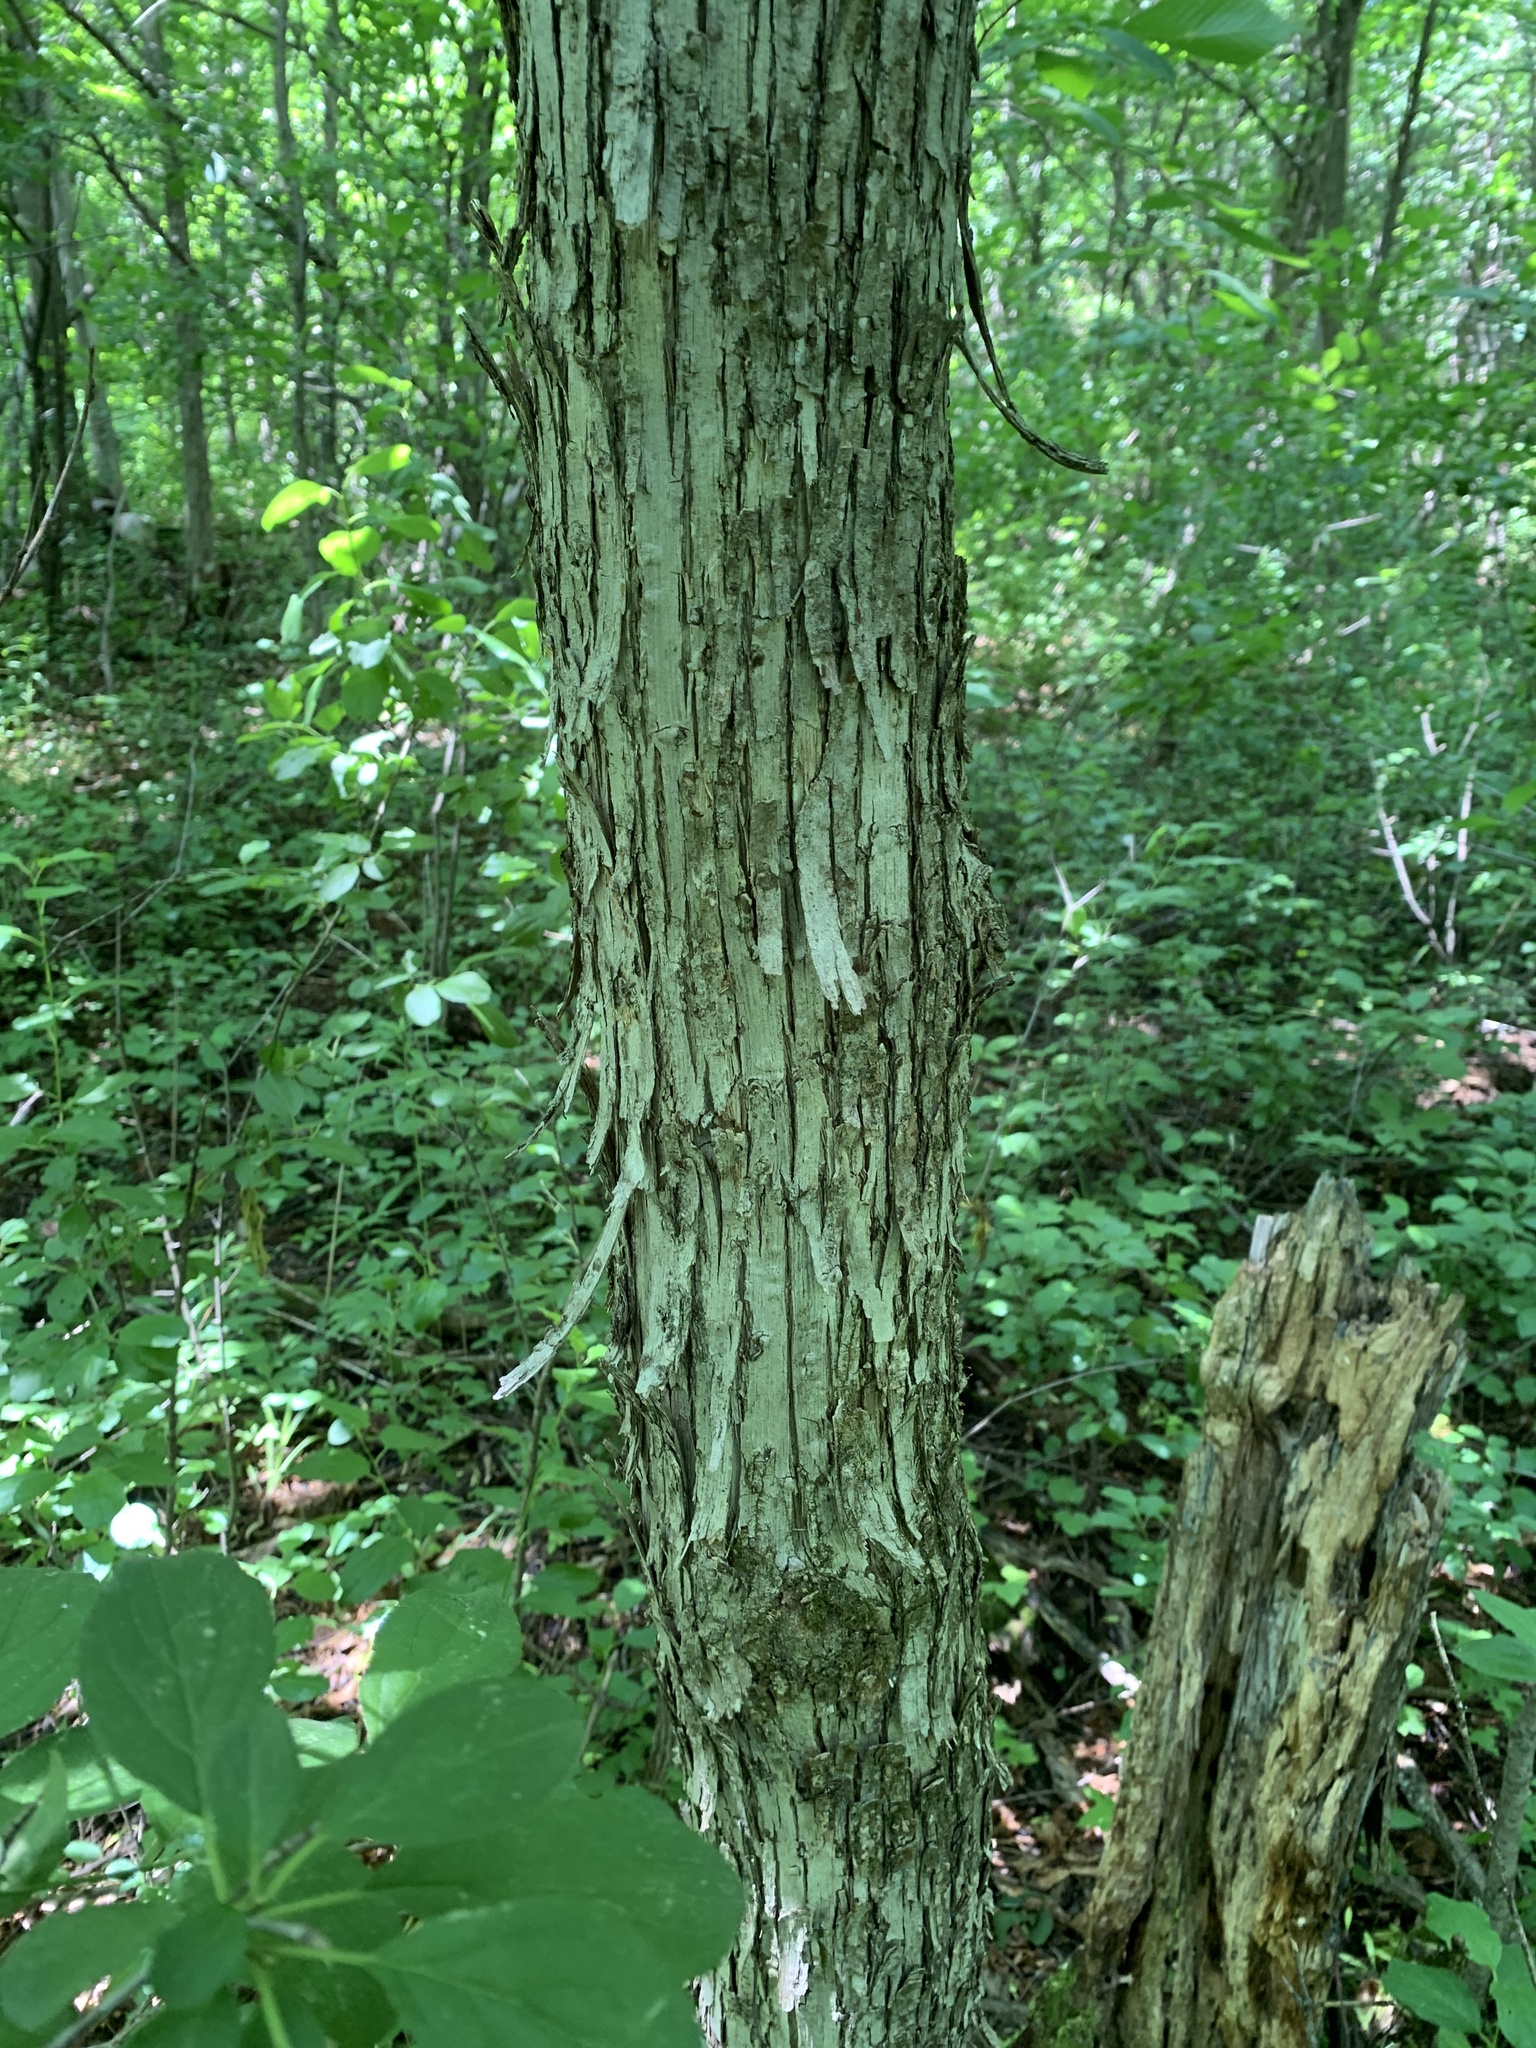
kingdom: Plantae
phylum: Tracheophyta
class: Magnoliopsida
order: Fagales
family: Betulaceae
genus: Ostrya
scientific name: Ostrya virginiana
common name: Ironwood
